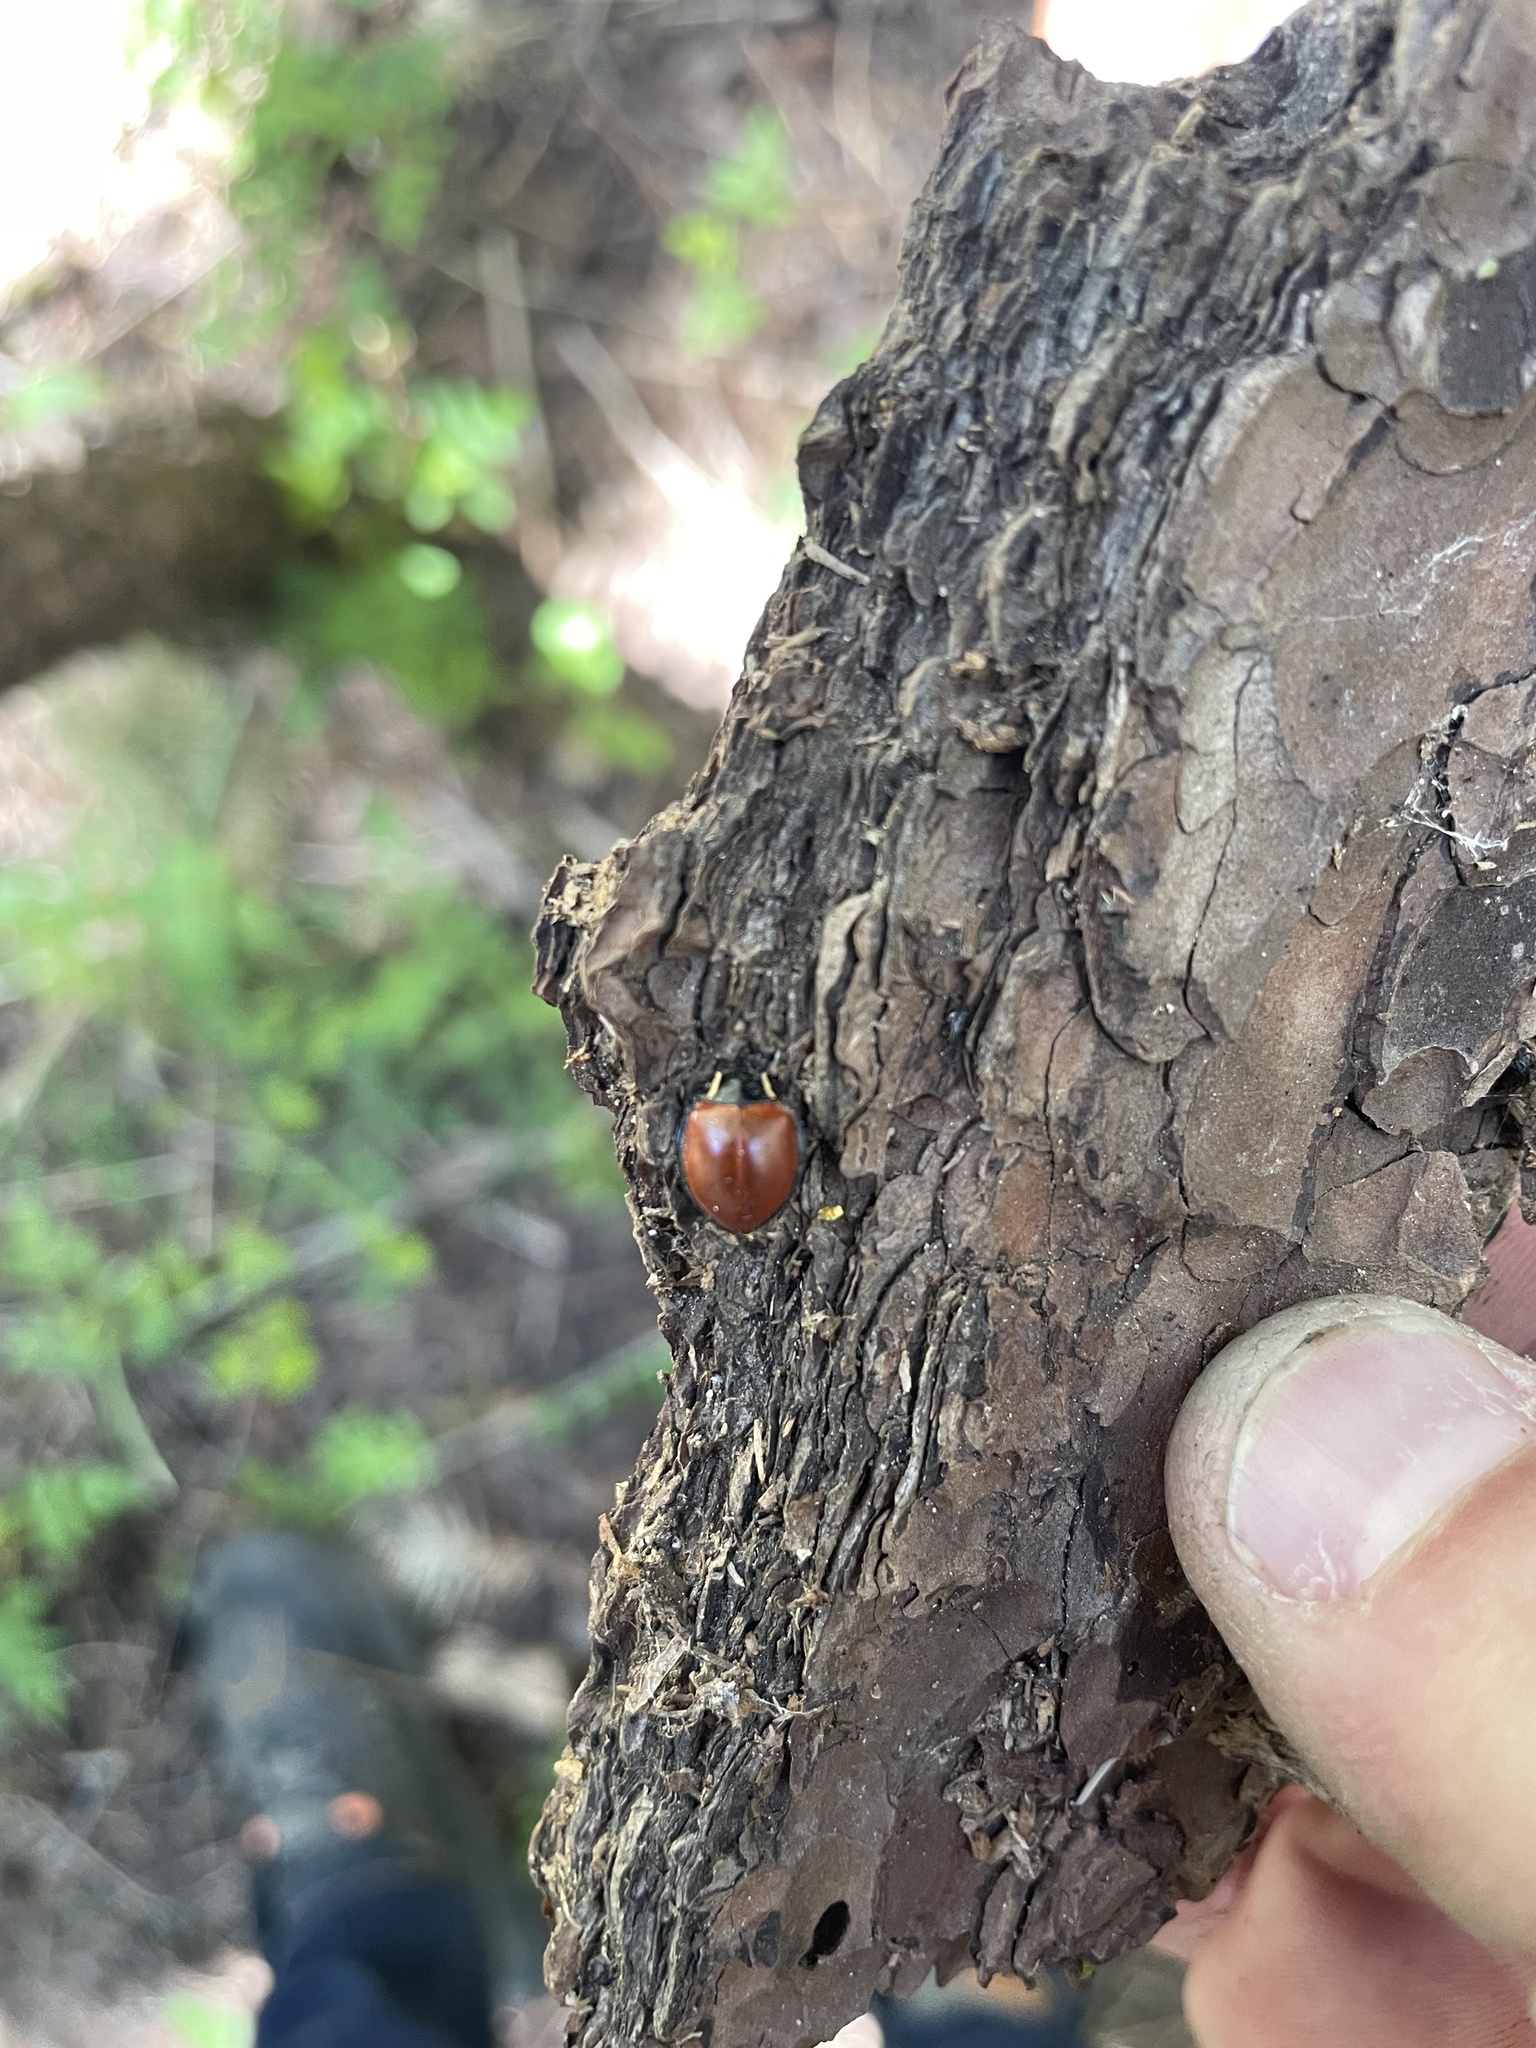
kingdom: Animalia
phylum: Arthropoda
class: Insecta
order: Coleoptera
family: Coccinellidae
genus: Anatis
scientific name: Anatis lecontei
